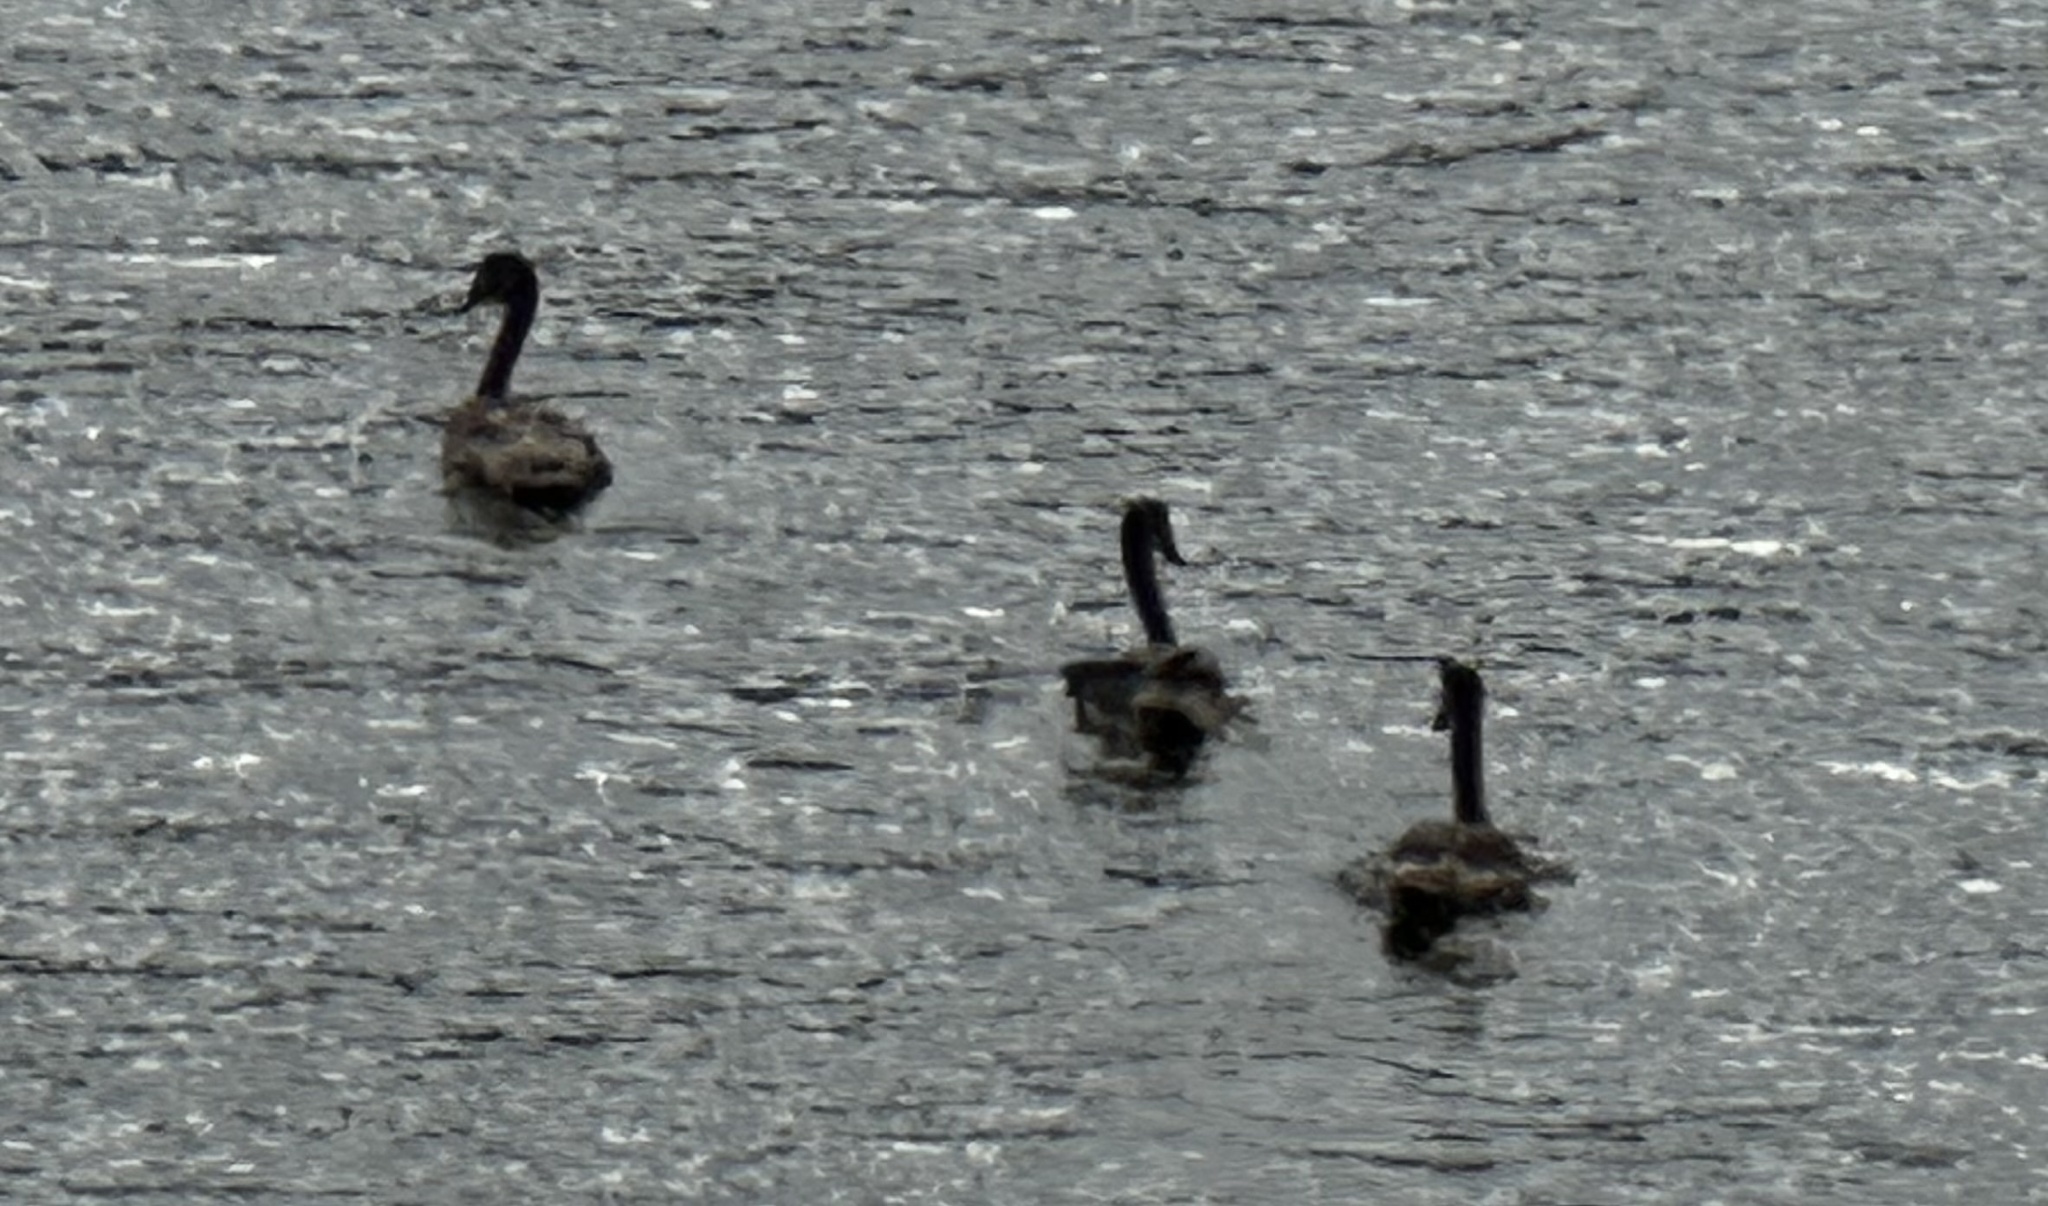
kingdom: Animalia
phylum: Chordata
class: Aves
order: Anseriformes
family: Anatidae
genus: Cygnus
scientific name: Cygnus olor
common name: Mute swan
